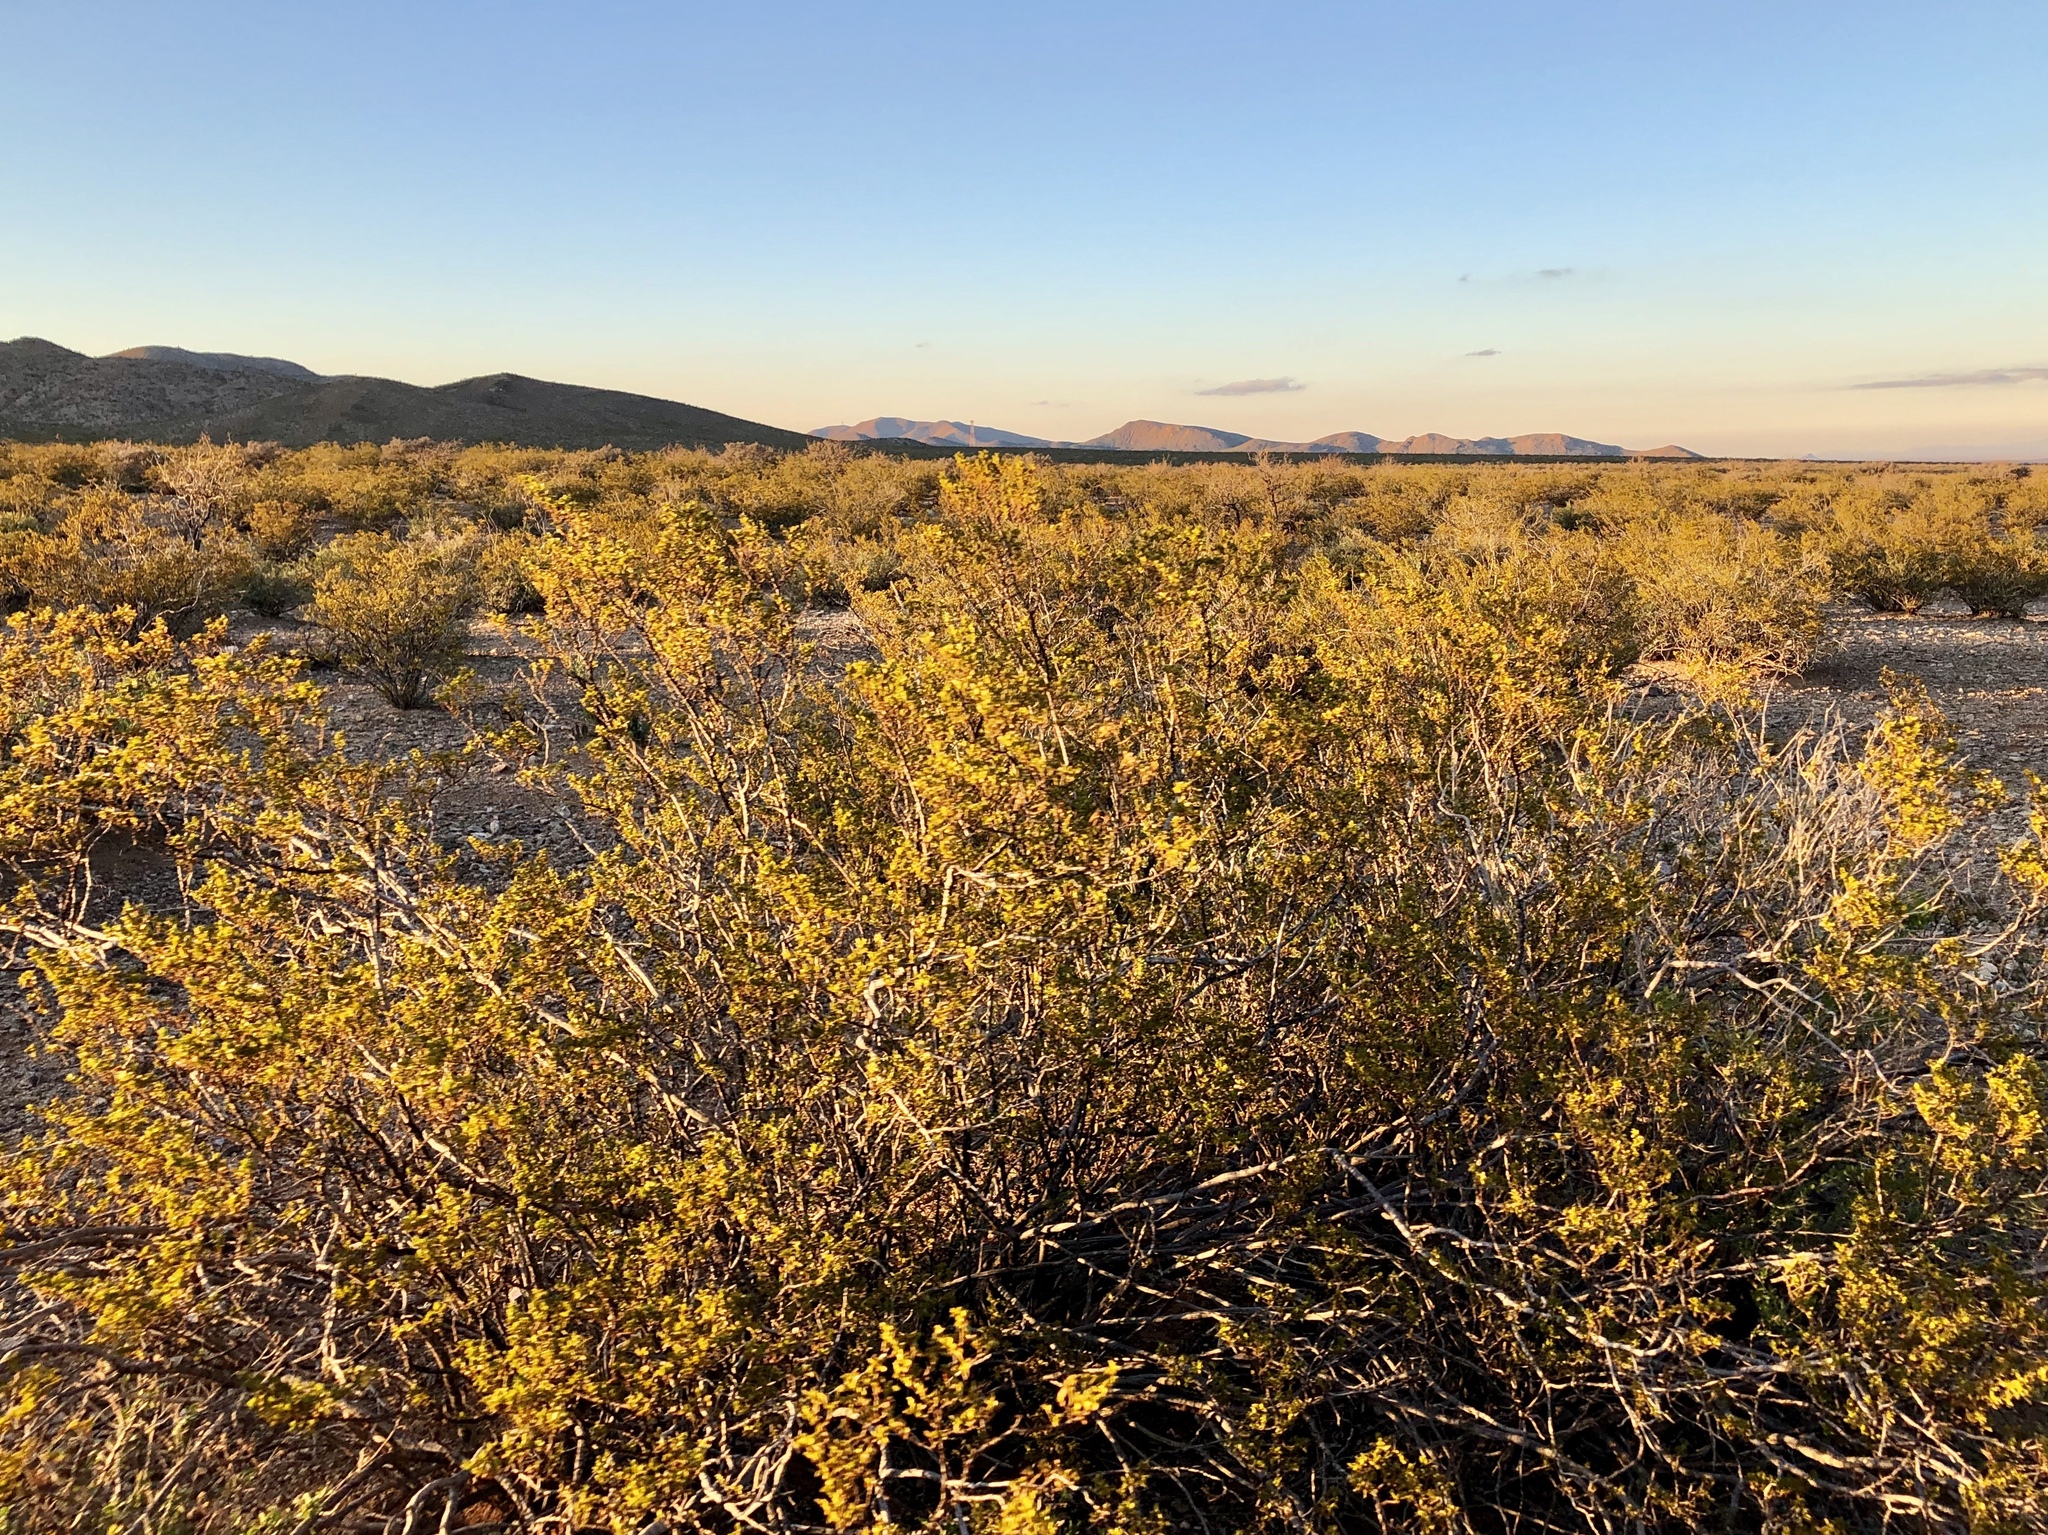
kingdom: Plantae
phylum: Tracheophyta
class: Magnoliopsida
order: Zygophyllales
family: Zygophyllaceae
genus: Larrea
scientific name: Larrea tridentata
